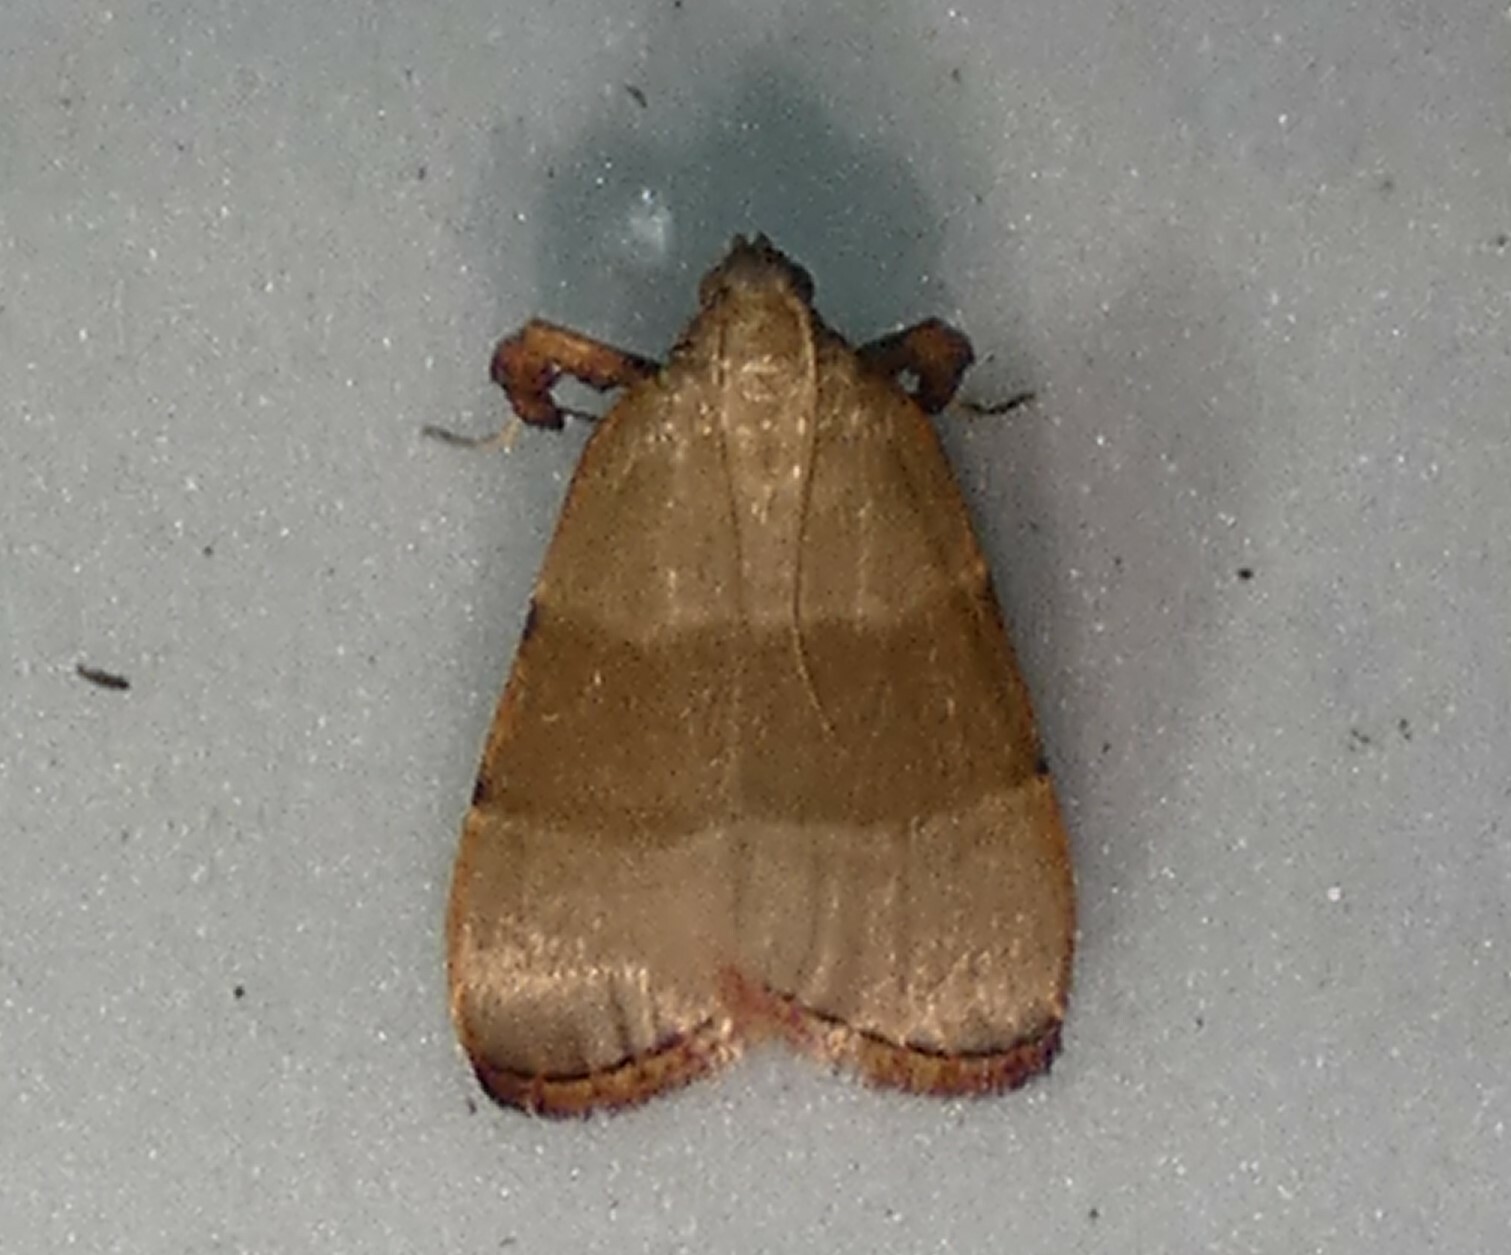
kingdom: Animalia
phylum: Arthropoda
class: Insecta
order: Lepidoptera
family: Pyralidae
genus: Basacallis
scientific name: Basacallis tarachodes
